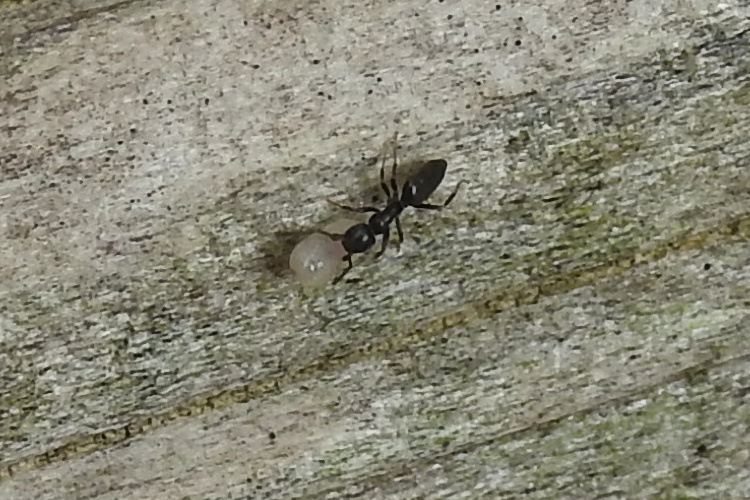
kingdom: Animalia
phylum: Arthropoda
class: Insecta
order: Hymenoptera
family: Formicidae
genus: Tapinoma
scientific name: Tapinoma sessile
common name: Odorous house ant
